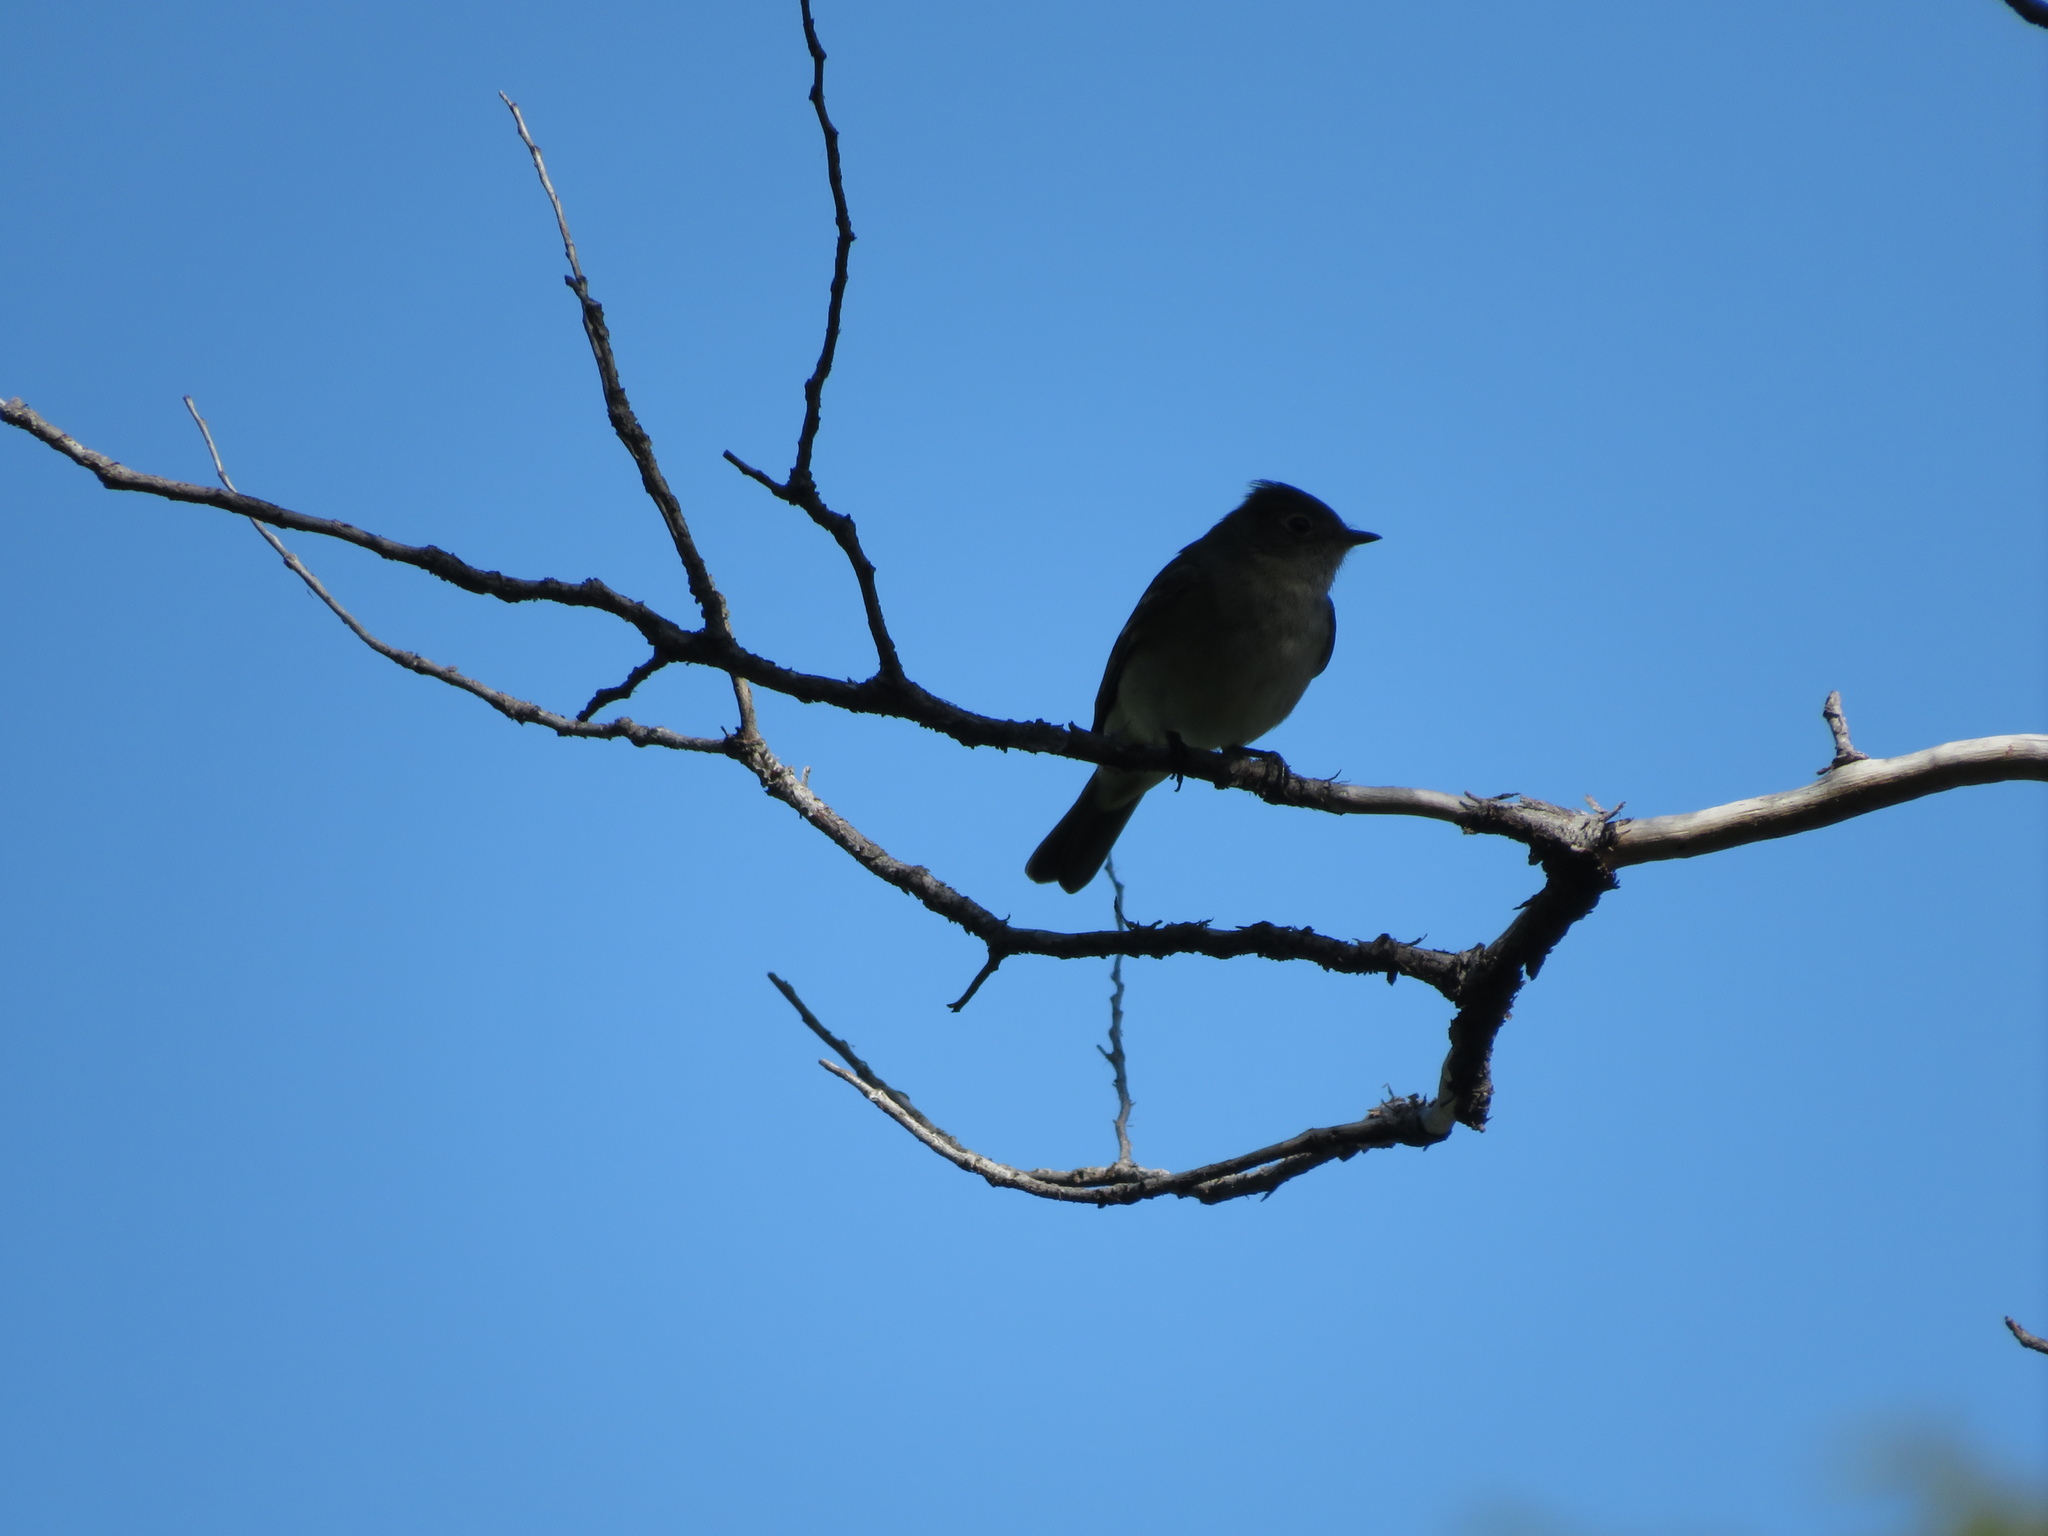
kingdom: Animalia
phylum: Chordata
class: Aves
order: Passeriformes
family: Tyrannidae
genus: Elaenia
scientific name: Elaenia albiceps
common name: White-crested elaenia
